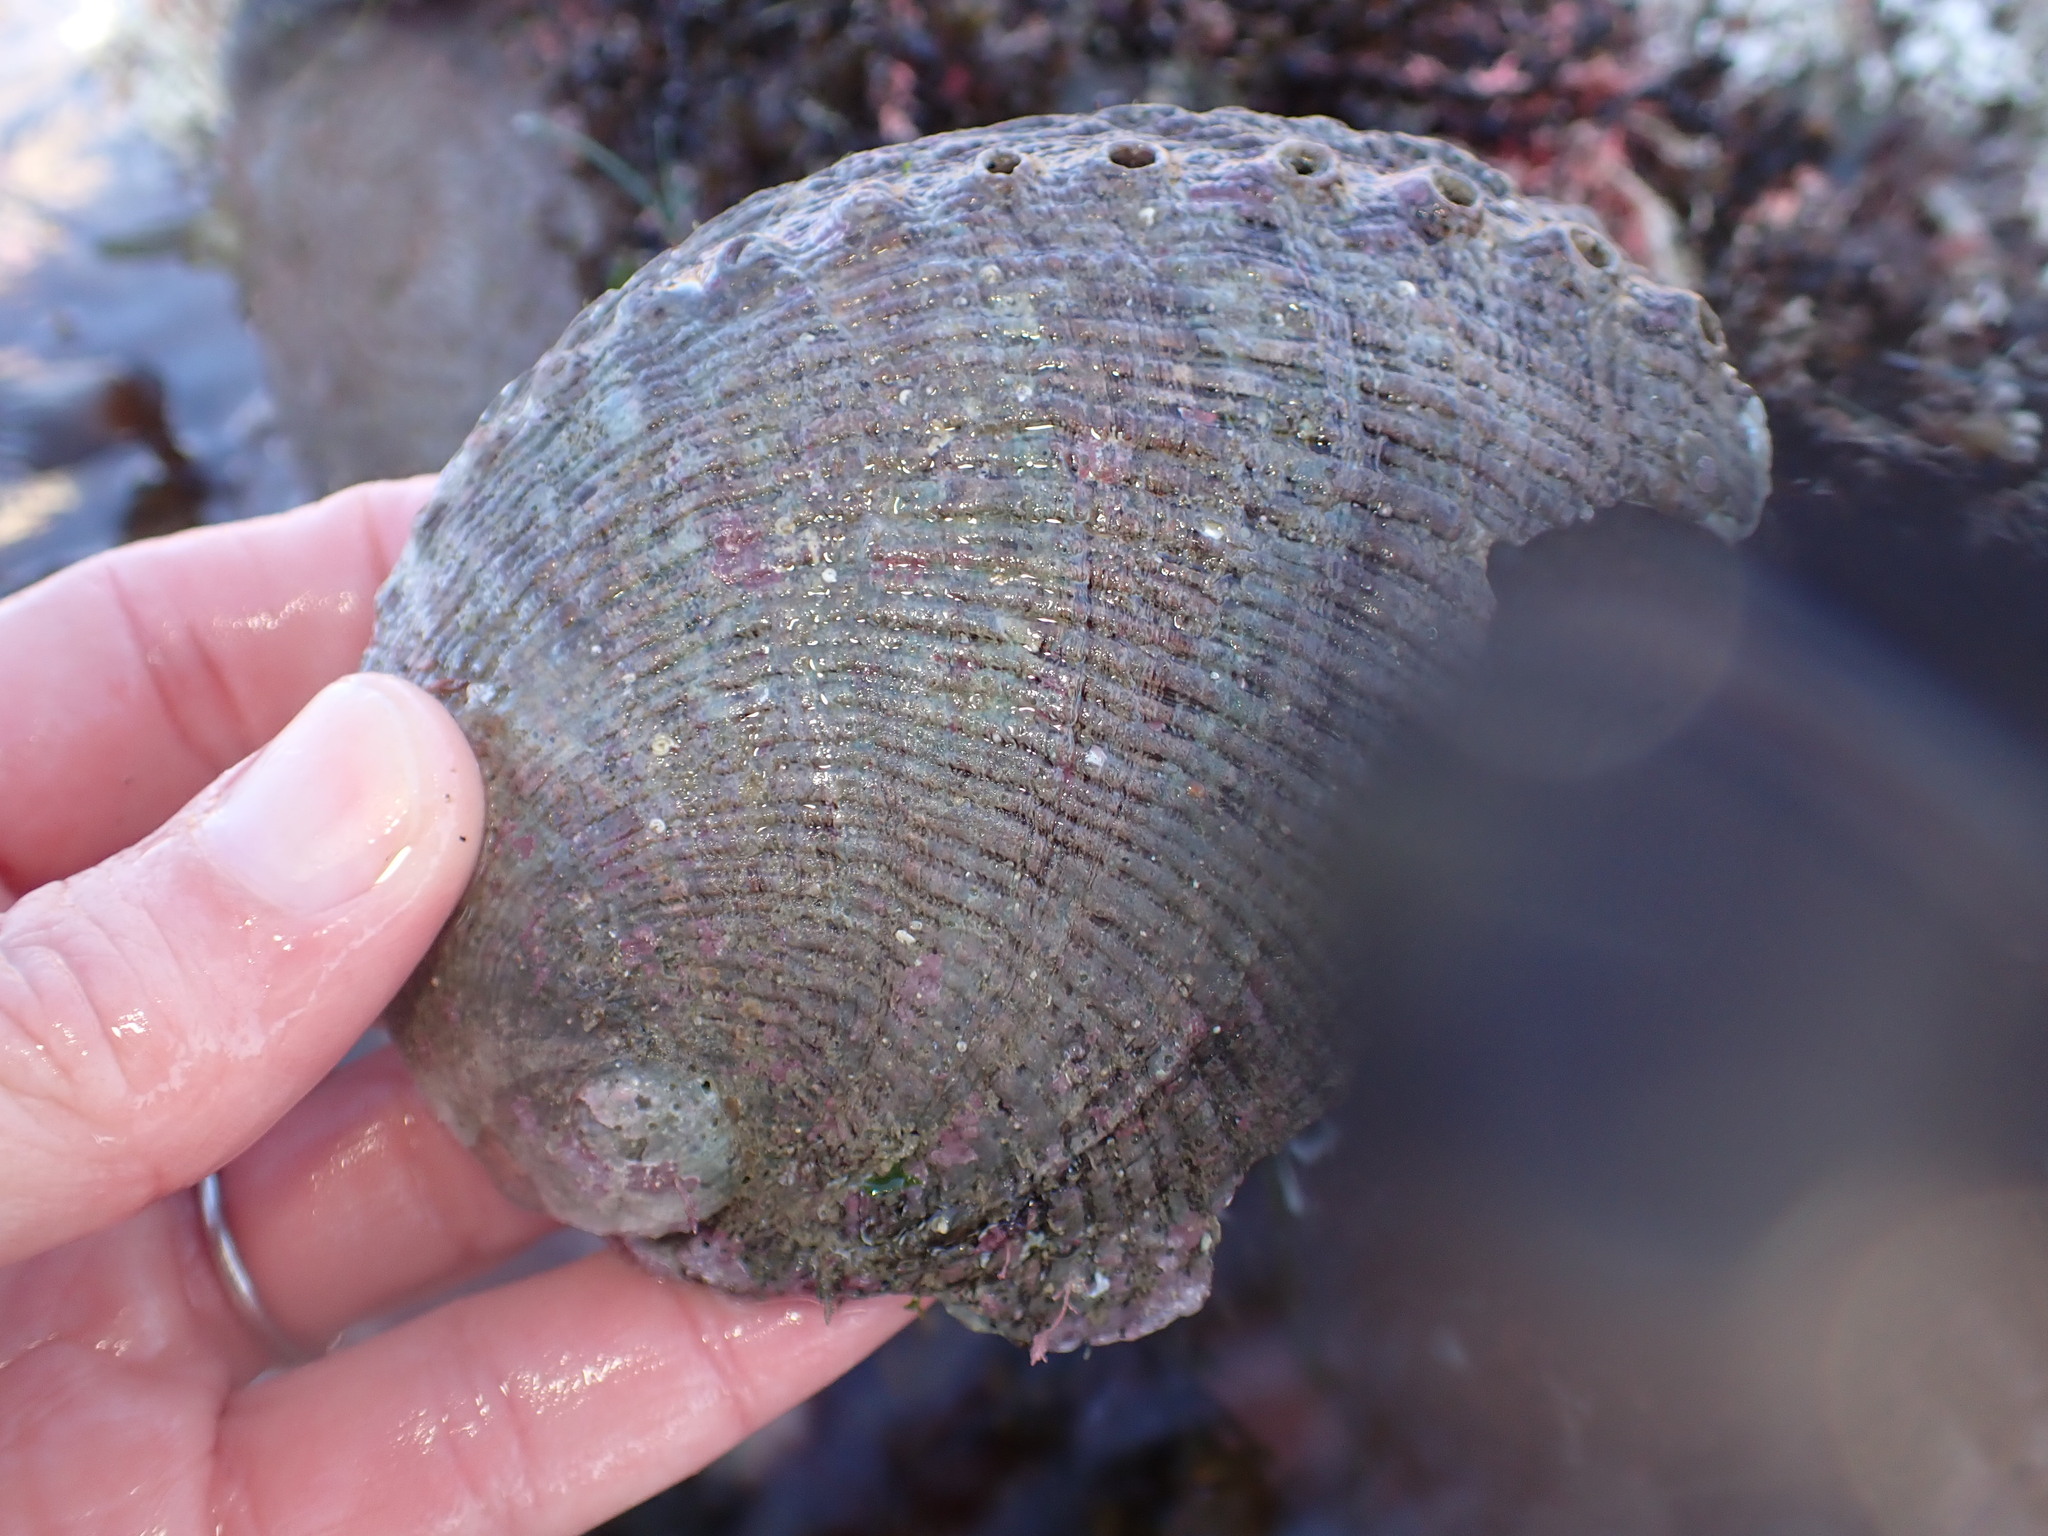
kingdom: Animalia
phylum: Mollusca
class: Gastropoda
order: Lepetellida
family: Haliotidae
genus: Haliotis
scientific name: Haliotis fulgens
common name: Green abalone
